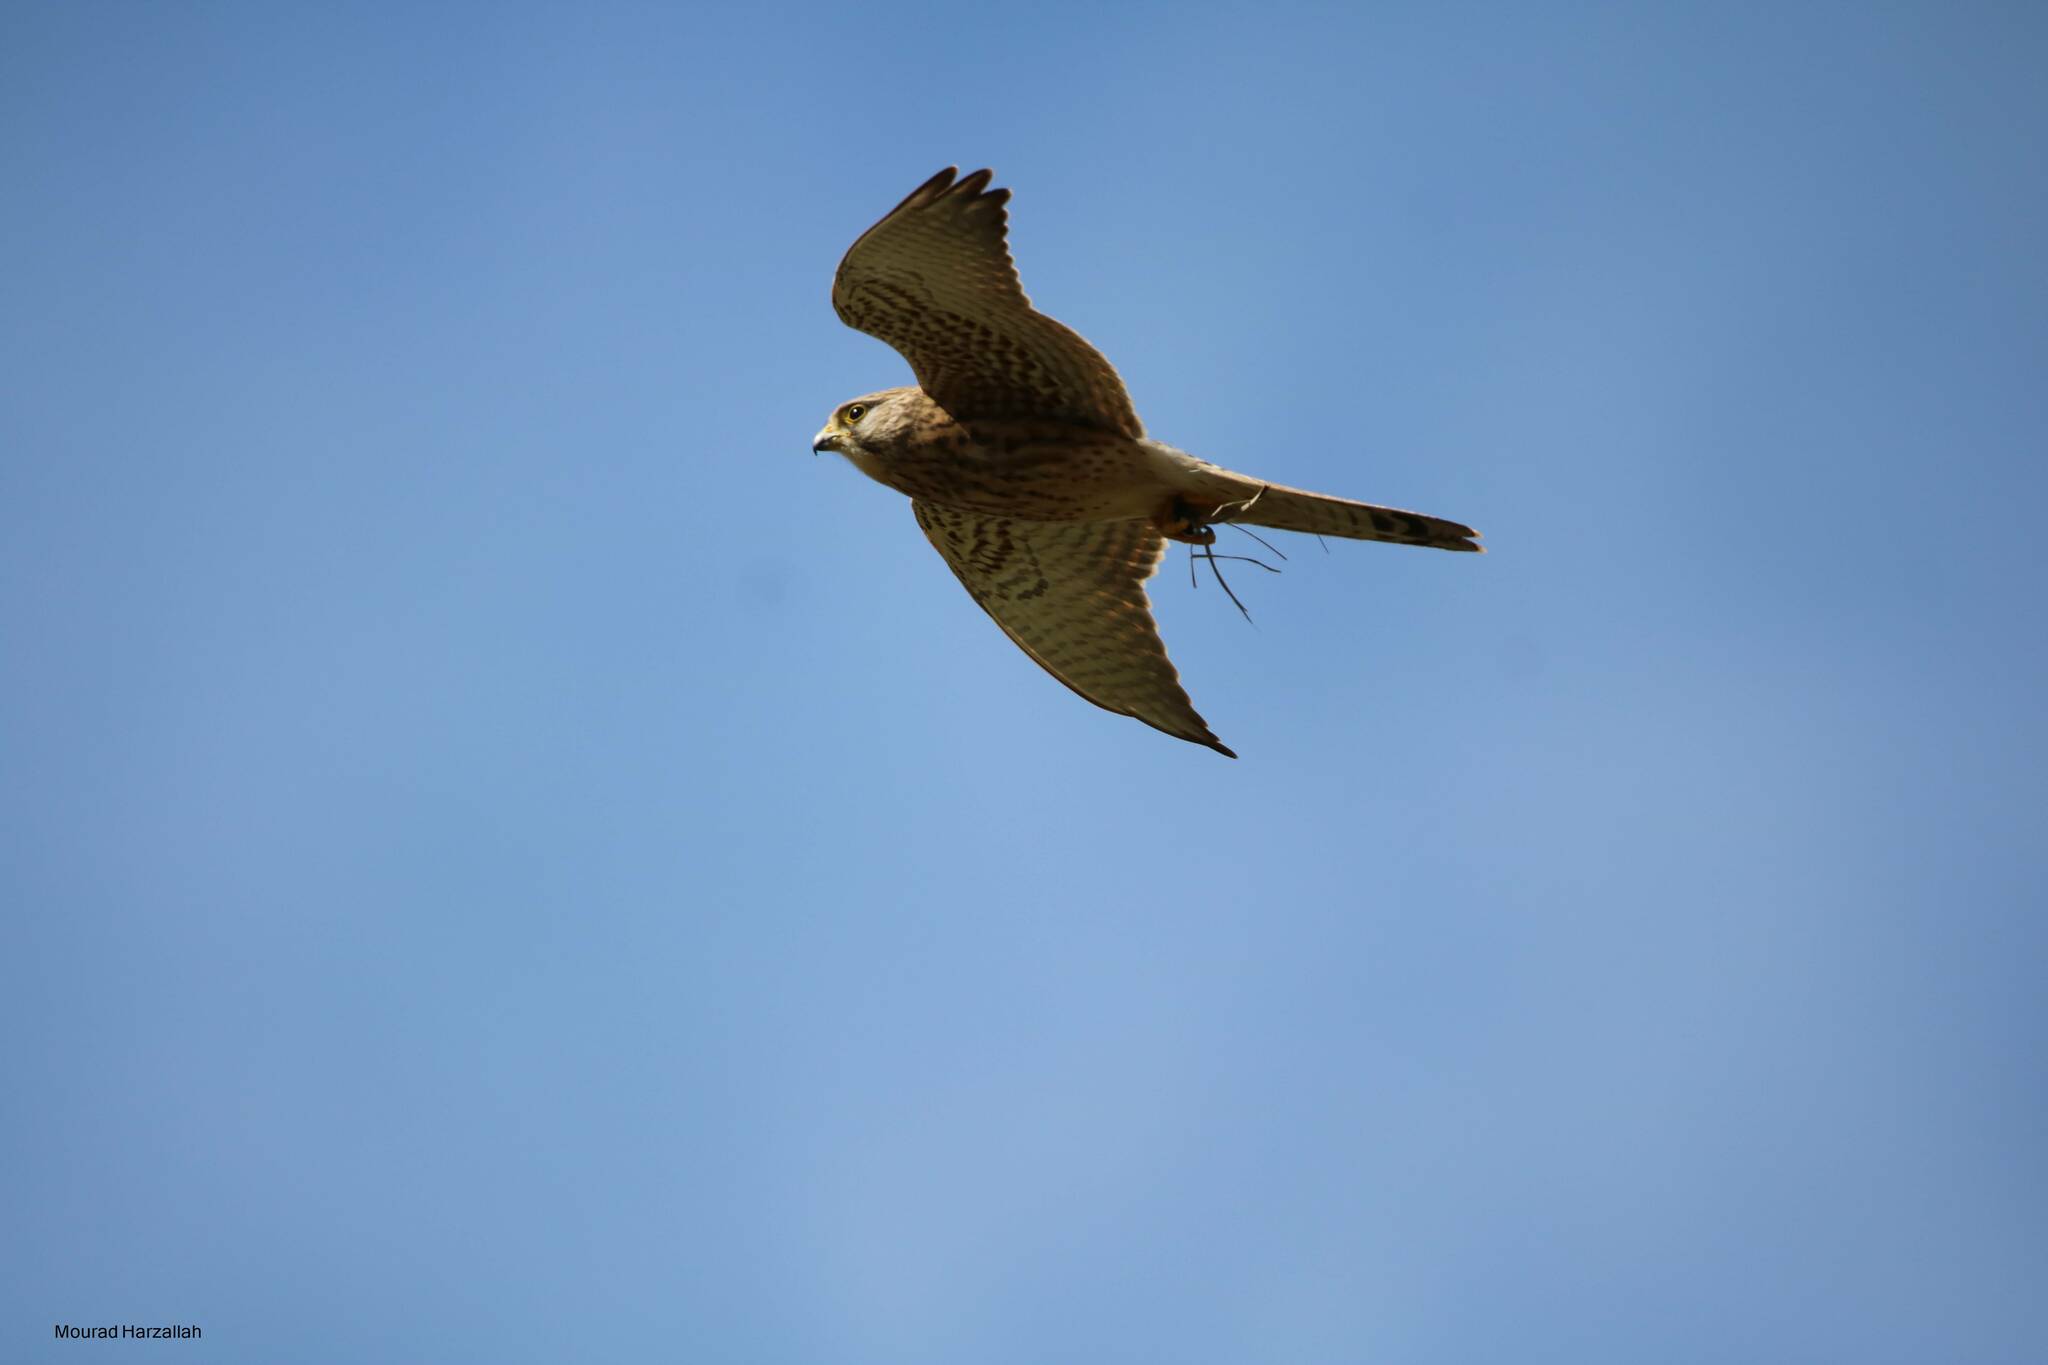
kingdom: Animalia
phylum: Chordata
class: Aves
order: Falconiformes
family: Falconidae
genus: Falco
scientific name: Falco tinnunculus
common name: Common kestrel
